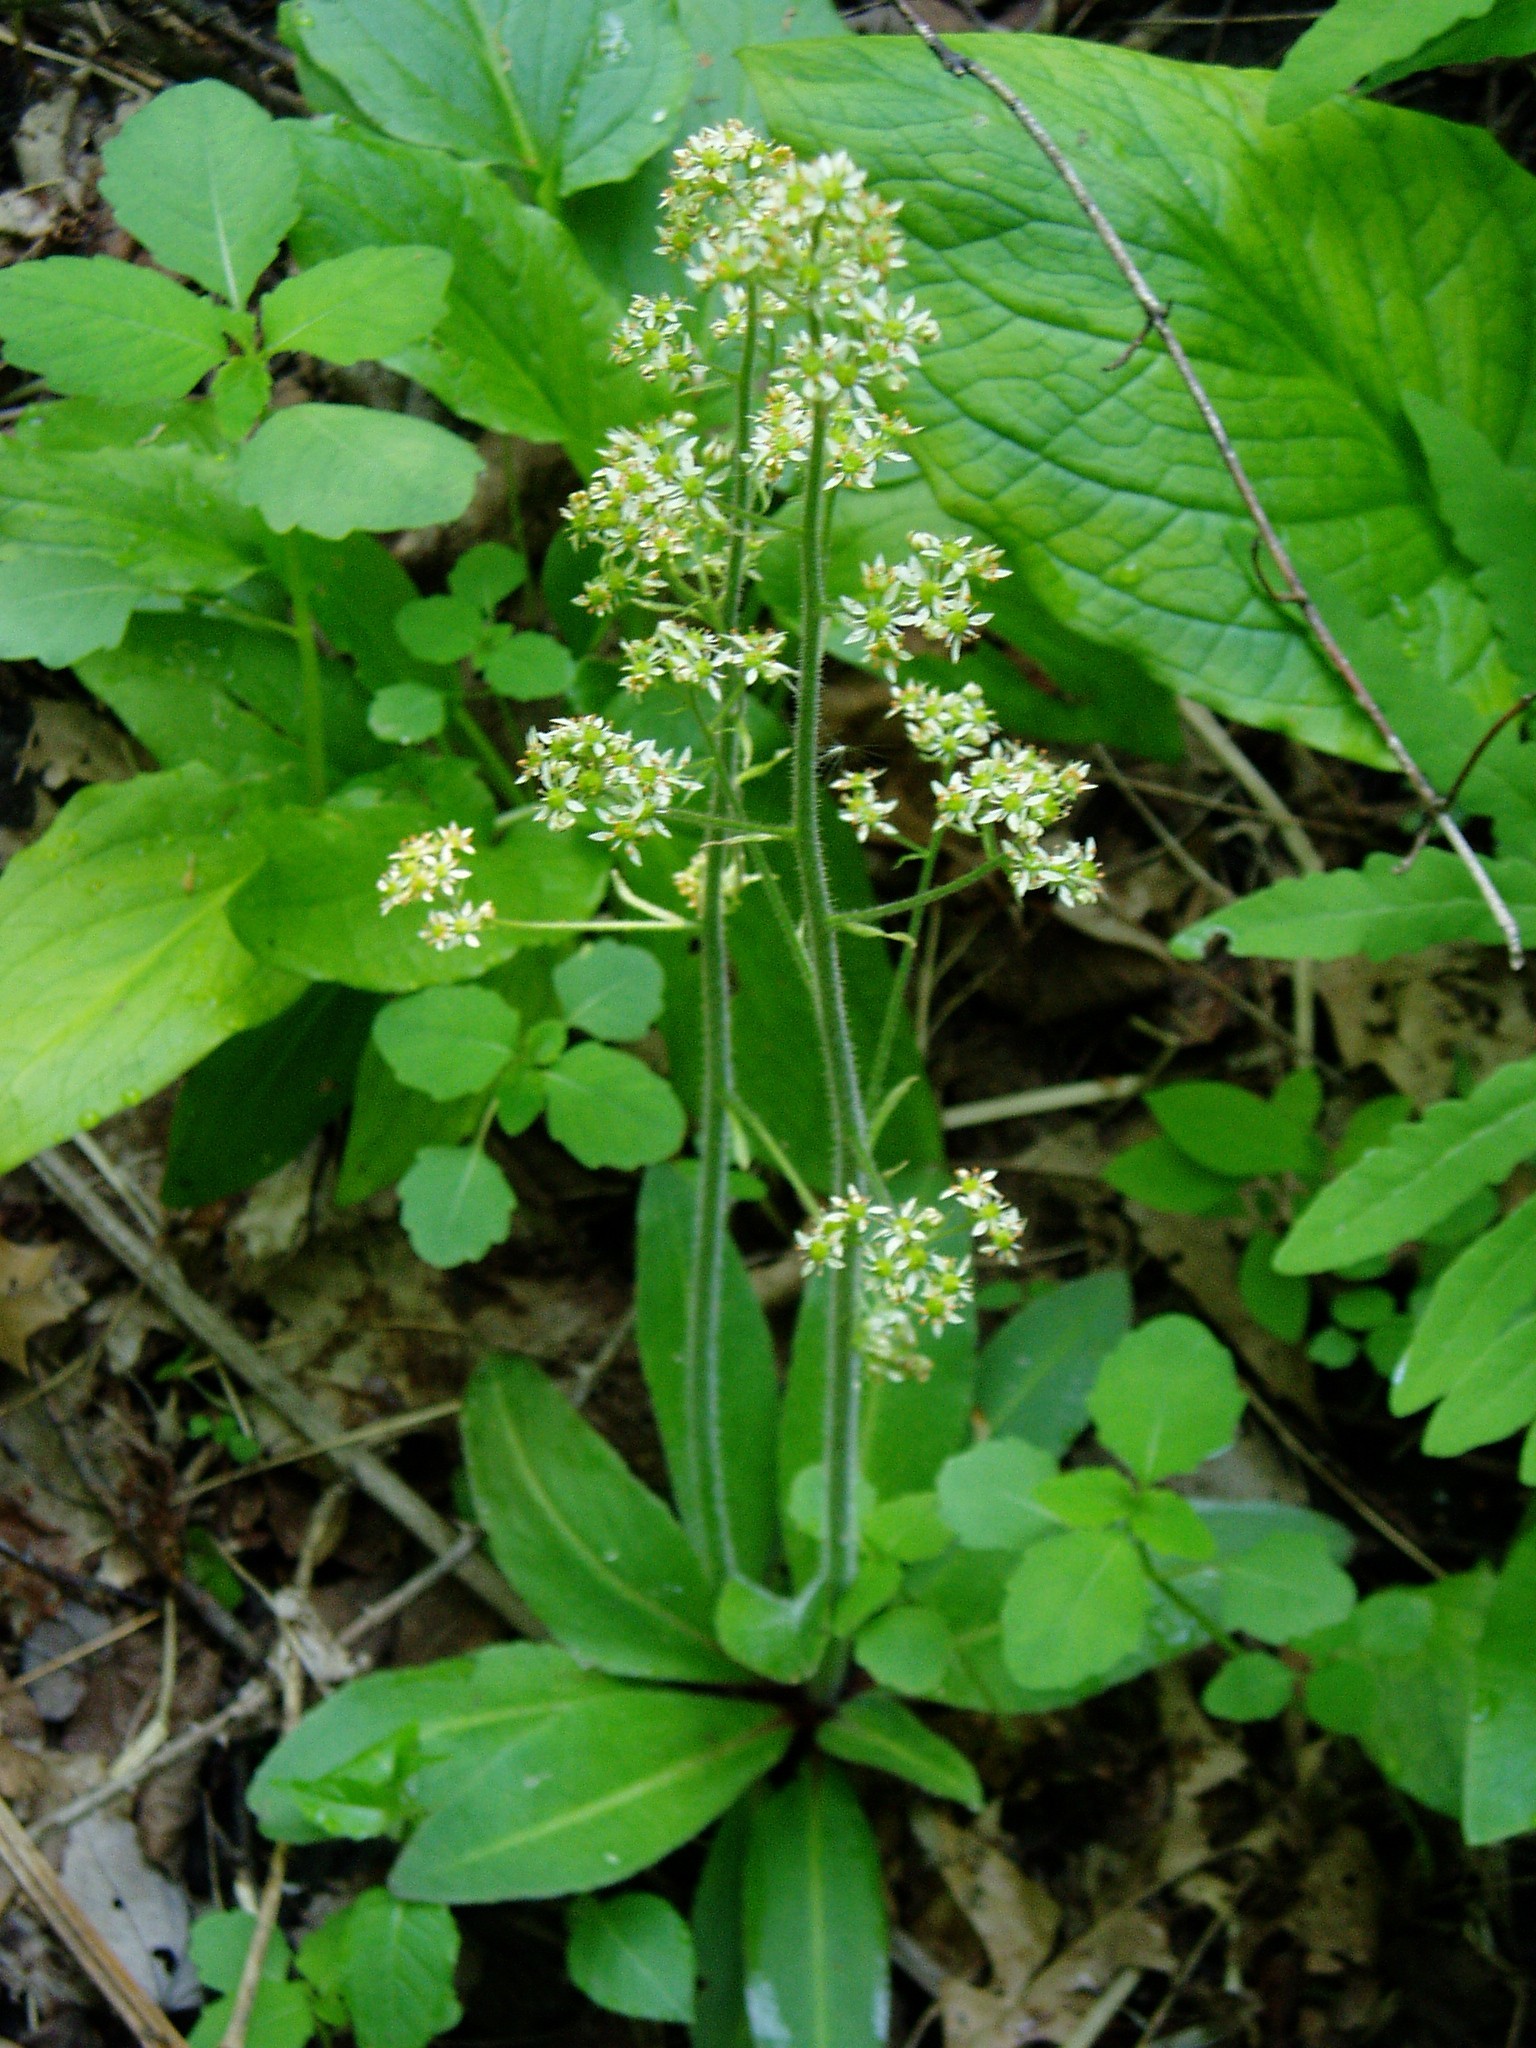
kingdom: Plantae
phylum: Tracheophyta
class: Magnoliopsida
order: Saxifragales
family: Saxifragaceae
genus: Micranthes
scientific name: Micranthes pensylvanica
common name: Marsh saxifrage
